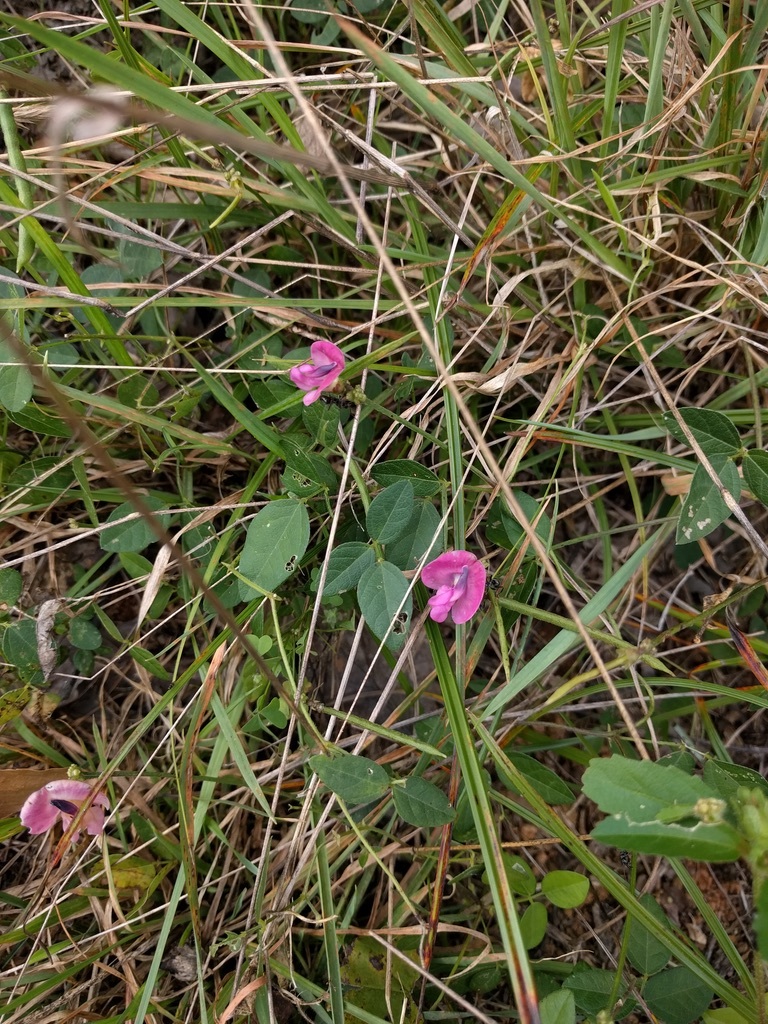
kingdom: Plantae
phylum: Tracheophyta
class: Magnoliopsida
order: Fabales
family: Fabaceae
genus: Strophostyles
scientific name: Strophostyles umbellata
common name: Perennial wild bean
